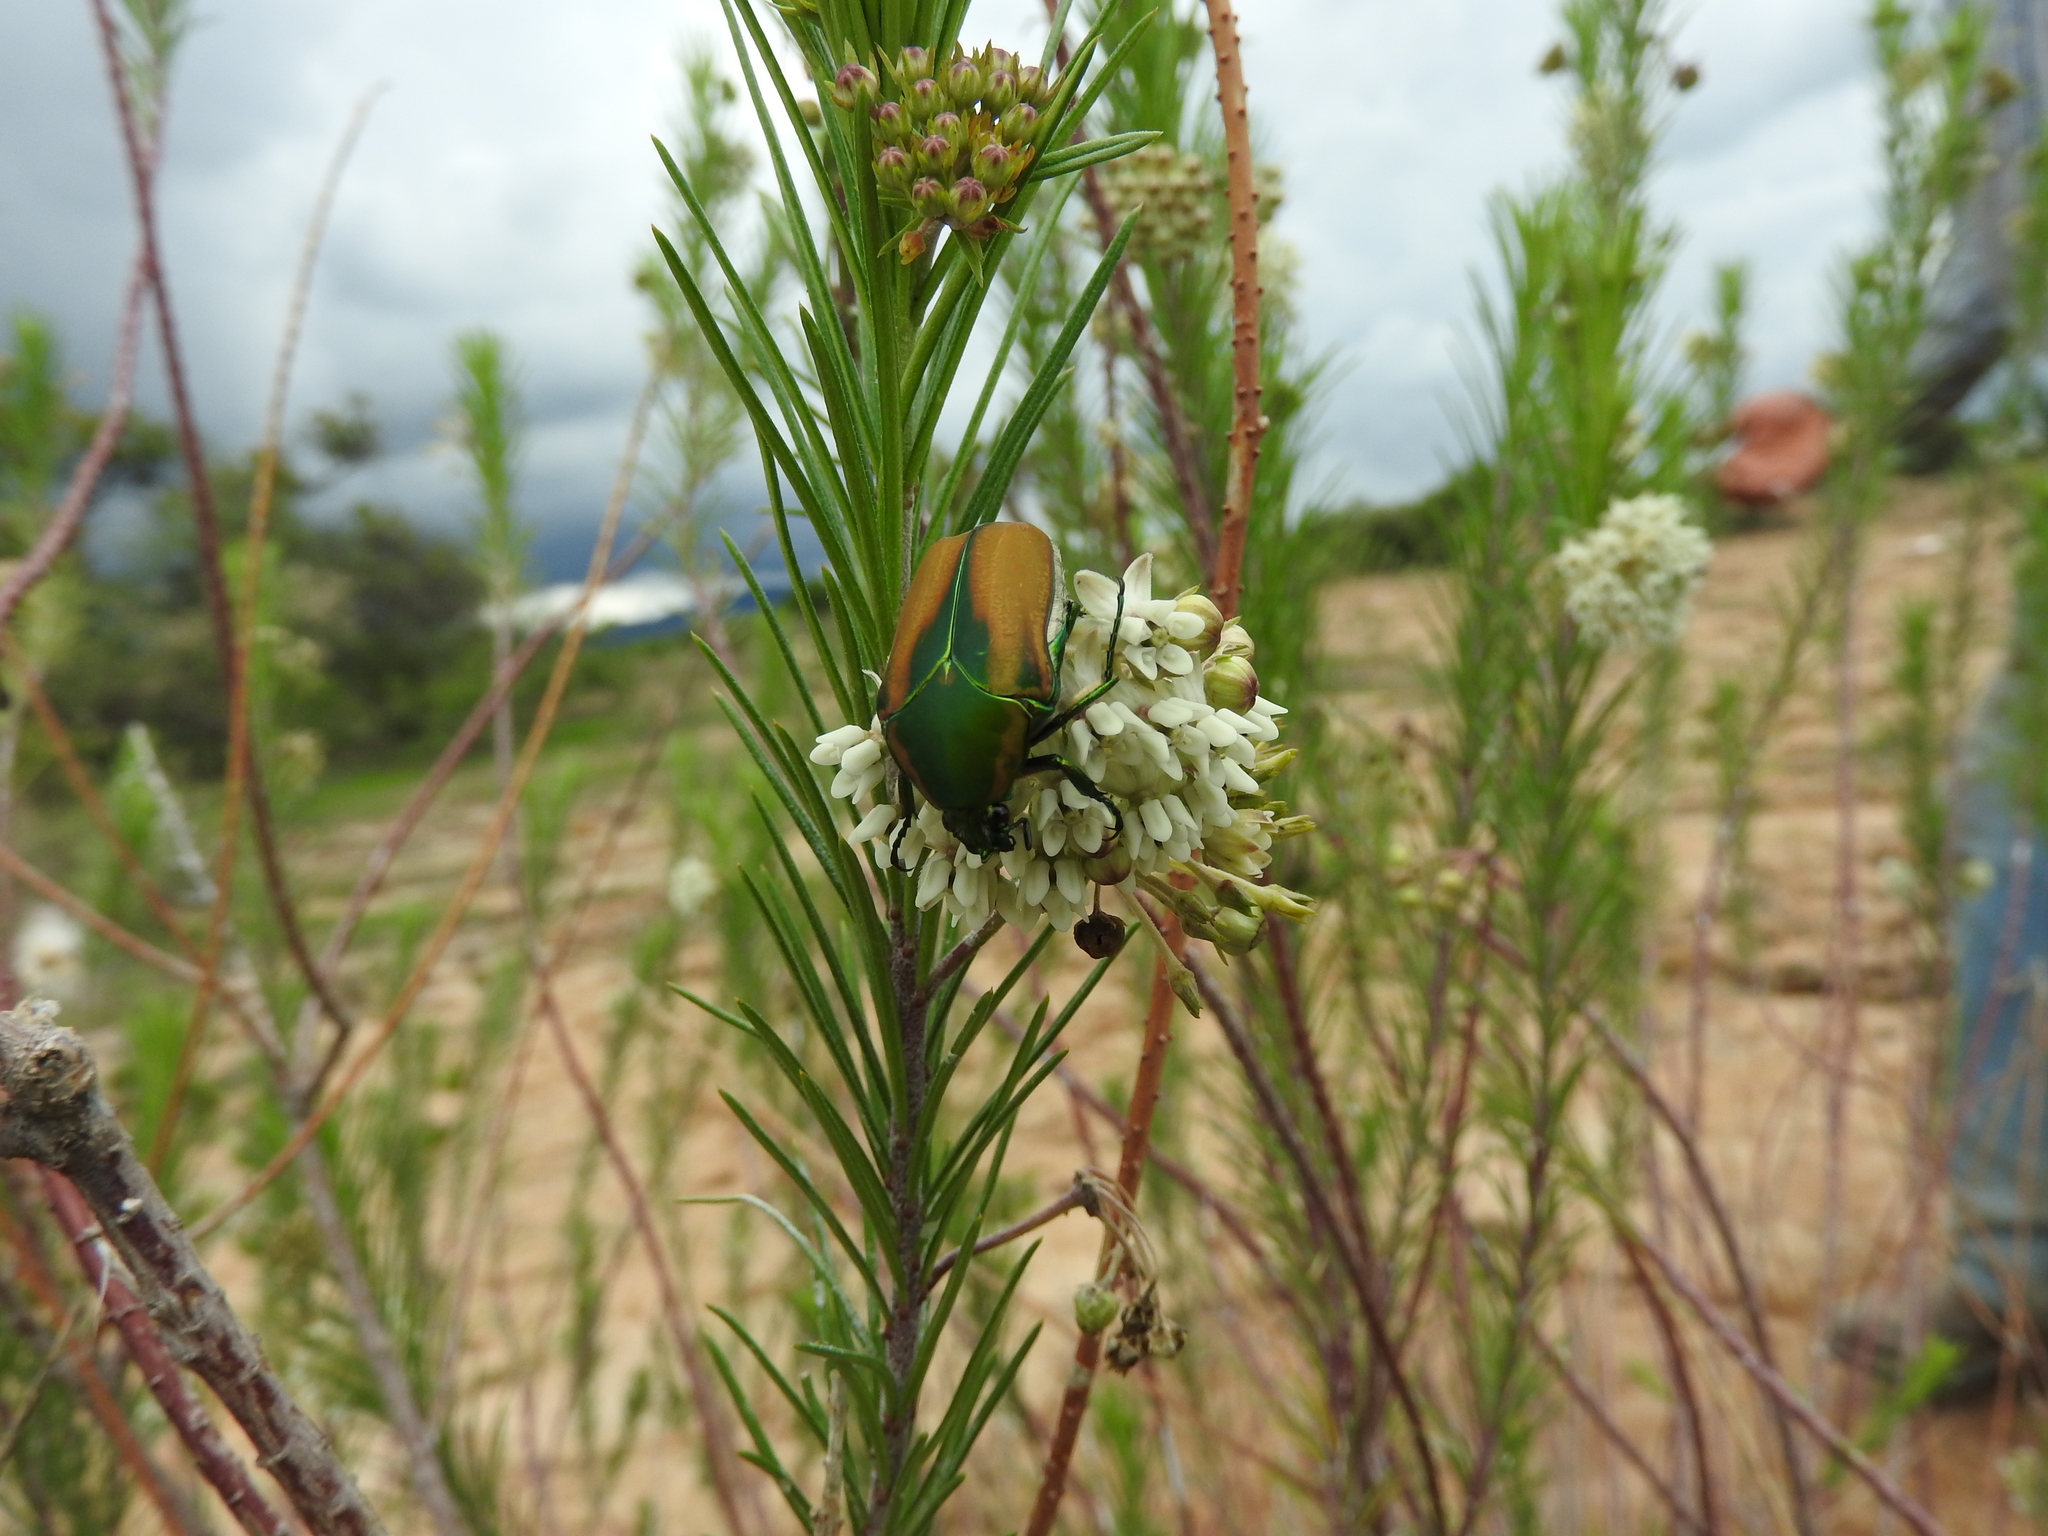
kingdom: Animalia
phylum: Arthropoda
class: Insecta
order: Coleoptera
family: Scarabaeidae
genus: Cotinis
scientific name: Cotinis mutabilis
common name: Figeater beetle
